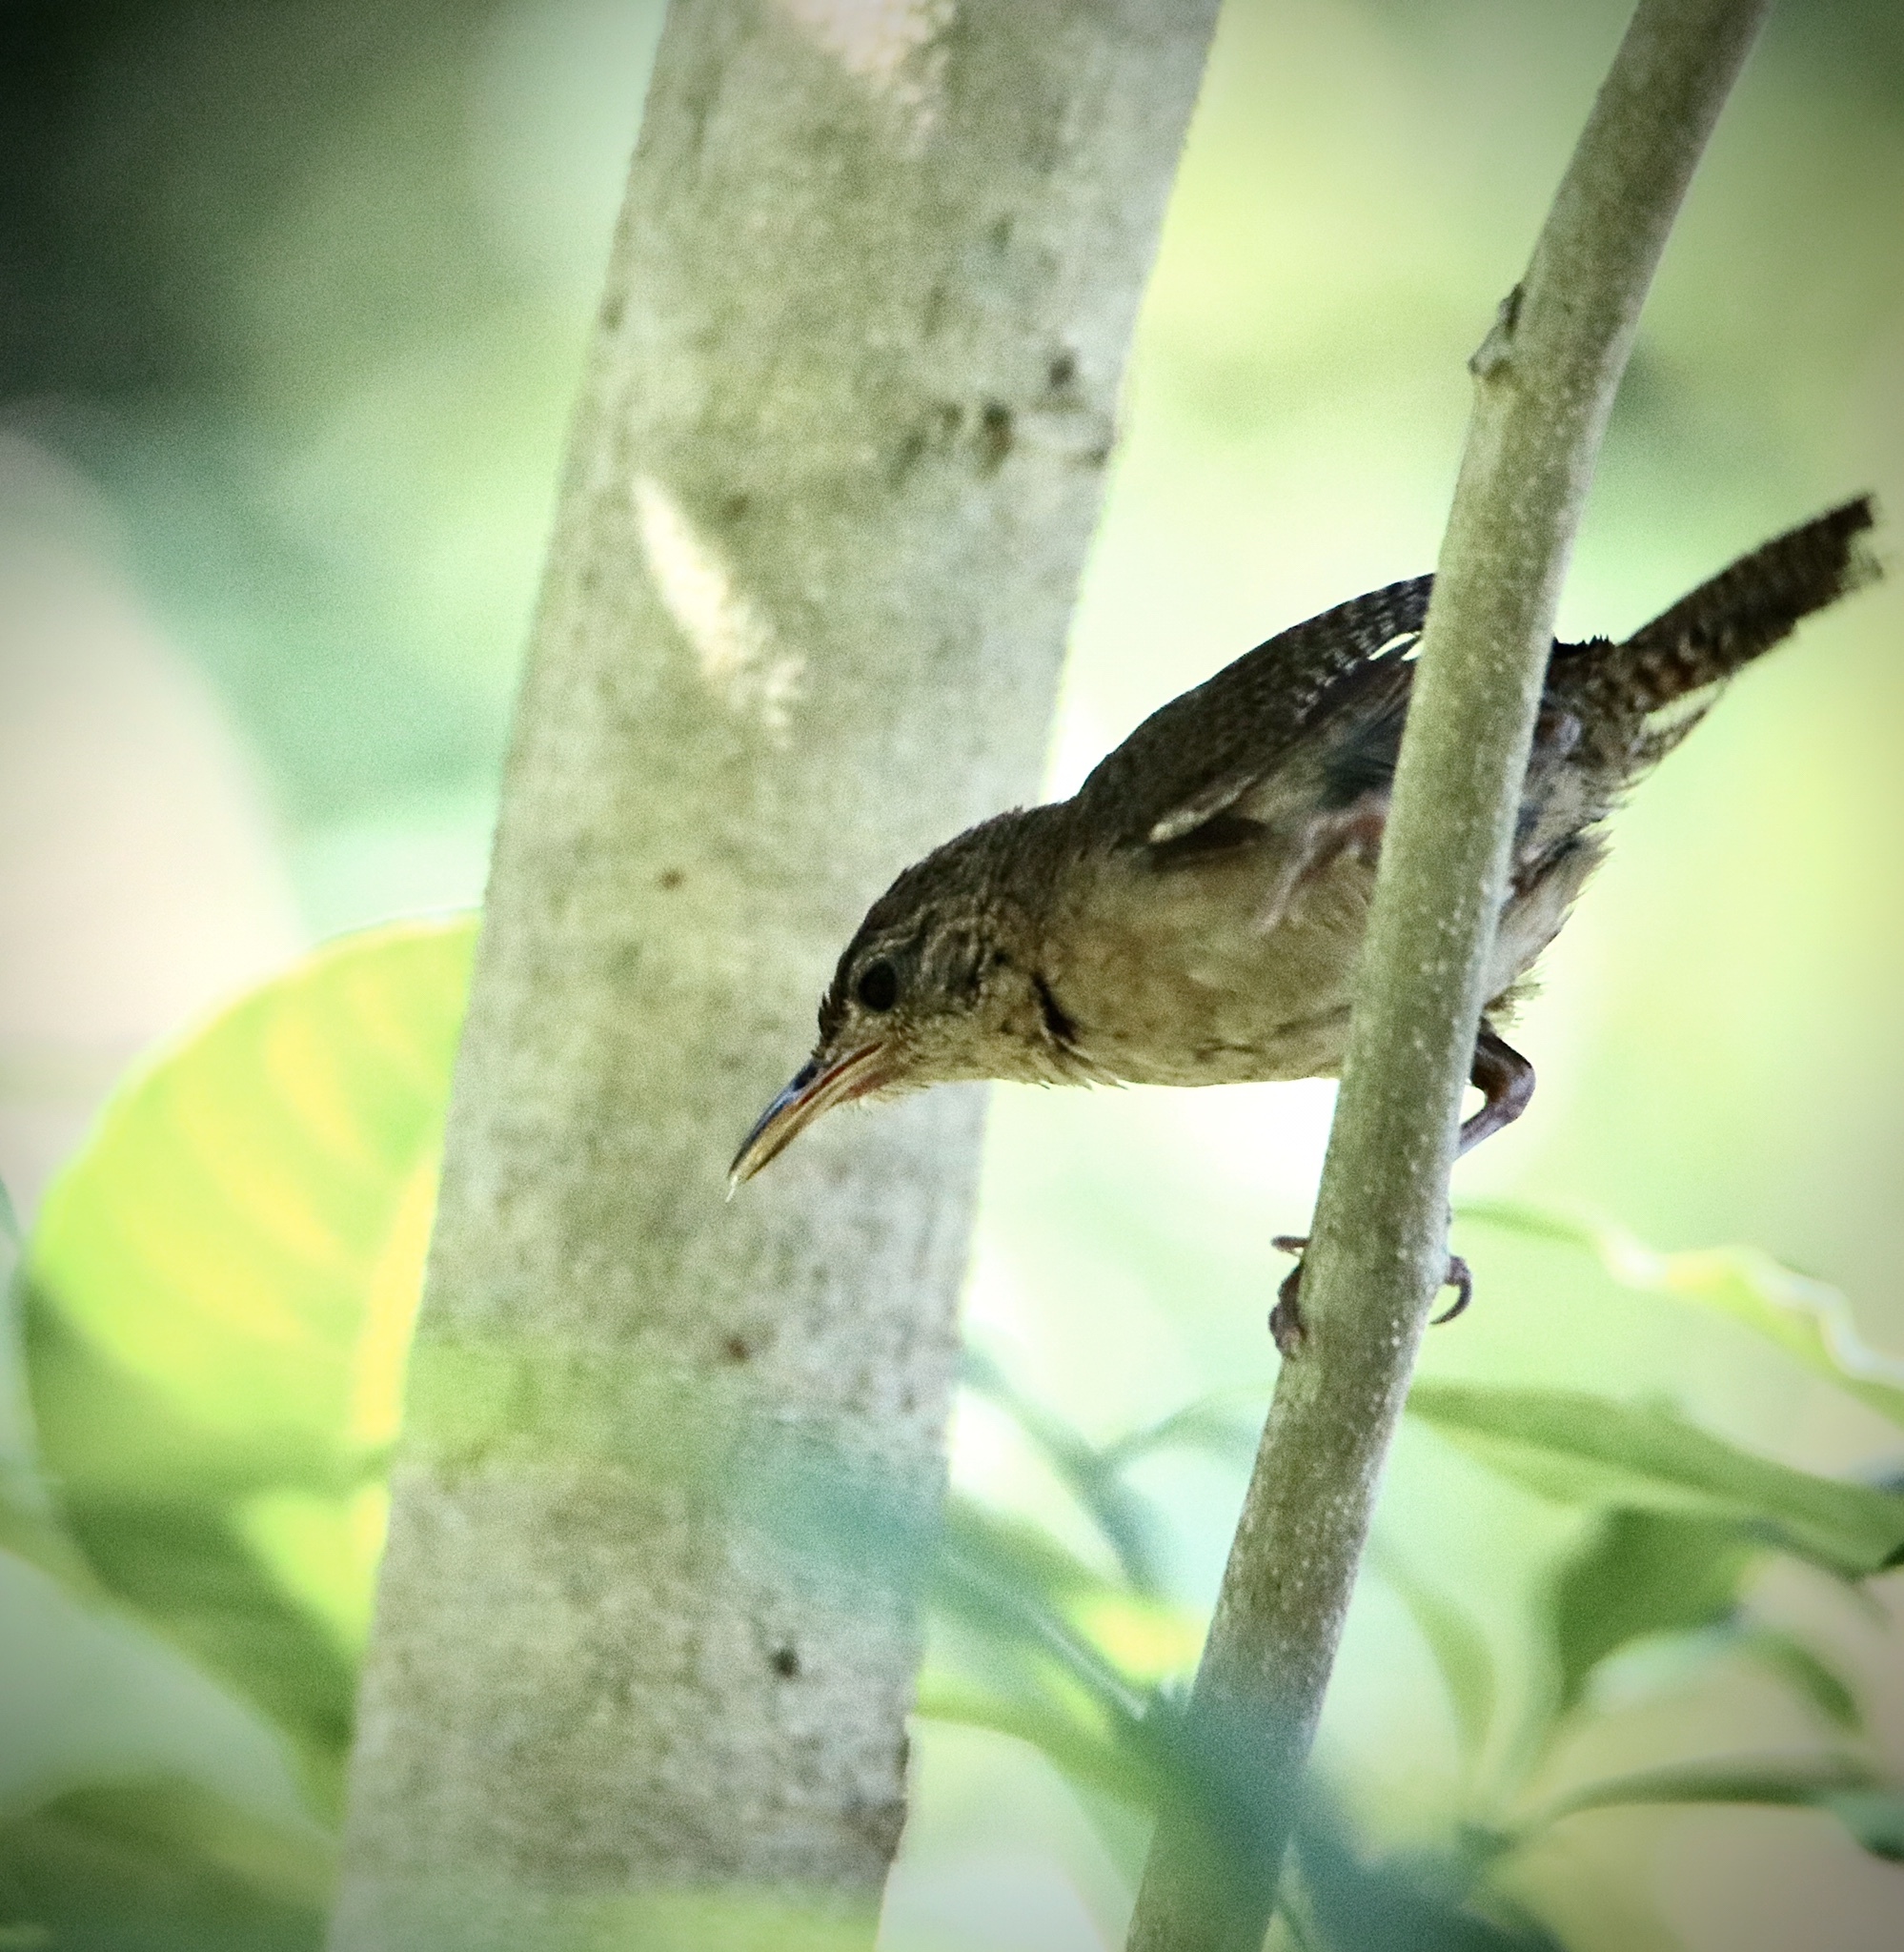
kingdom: Animalia
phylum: Chordata
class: Aves
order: Passeriformes
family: Troglodytidae
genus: Troglodytes
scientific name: Troglodytes aedon
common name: House wren
